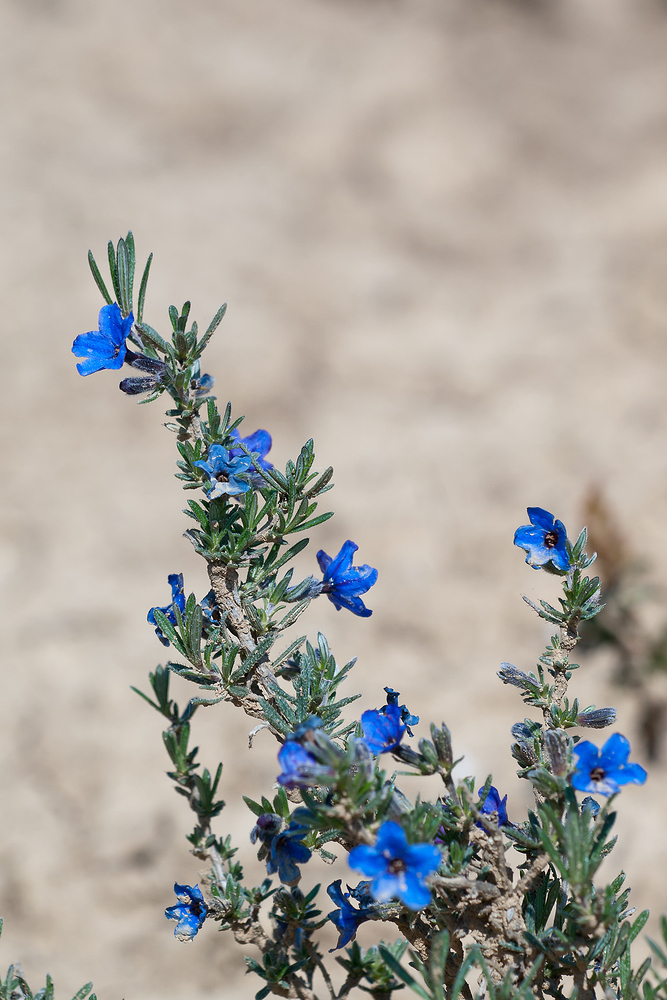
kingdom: Plantae
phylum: Tracheophyta
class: Magnoliopsida
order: Boraginales
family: Boraginaceae
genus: Lithodora
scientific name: Lithodora fruticosa
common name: Shrubby gromwell
